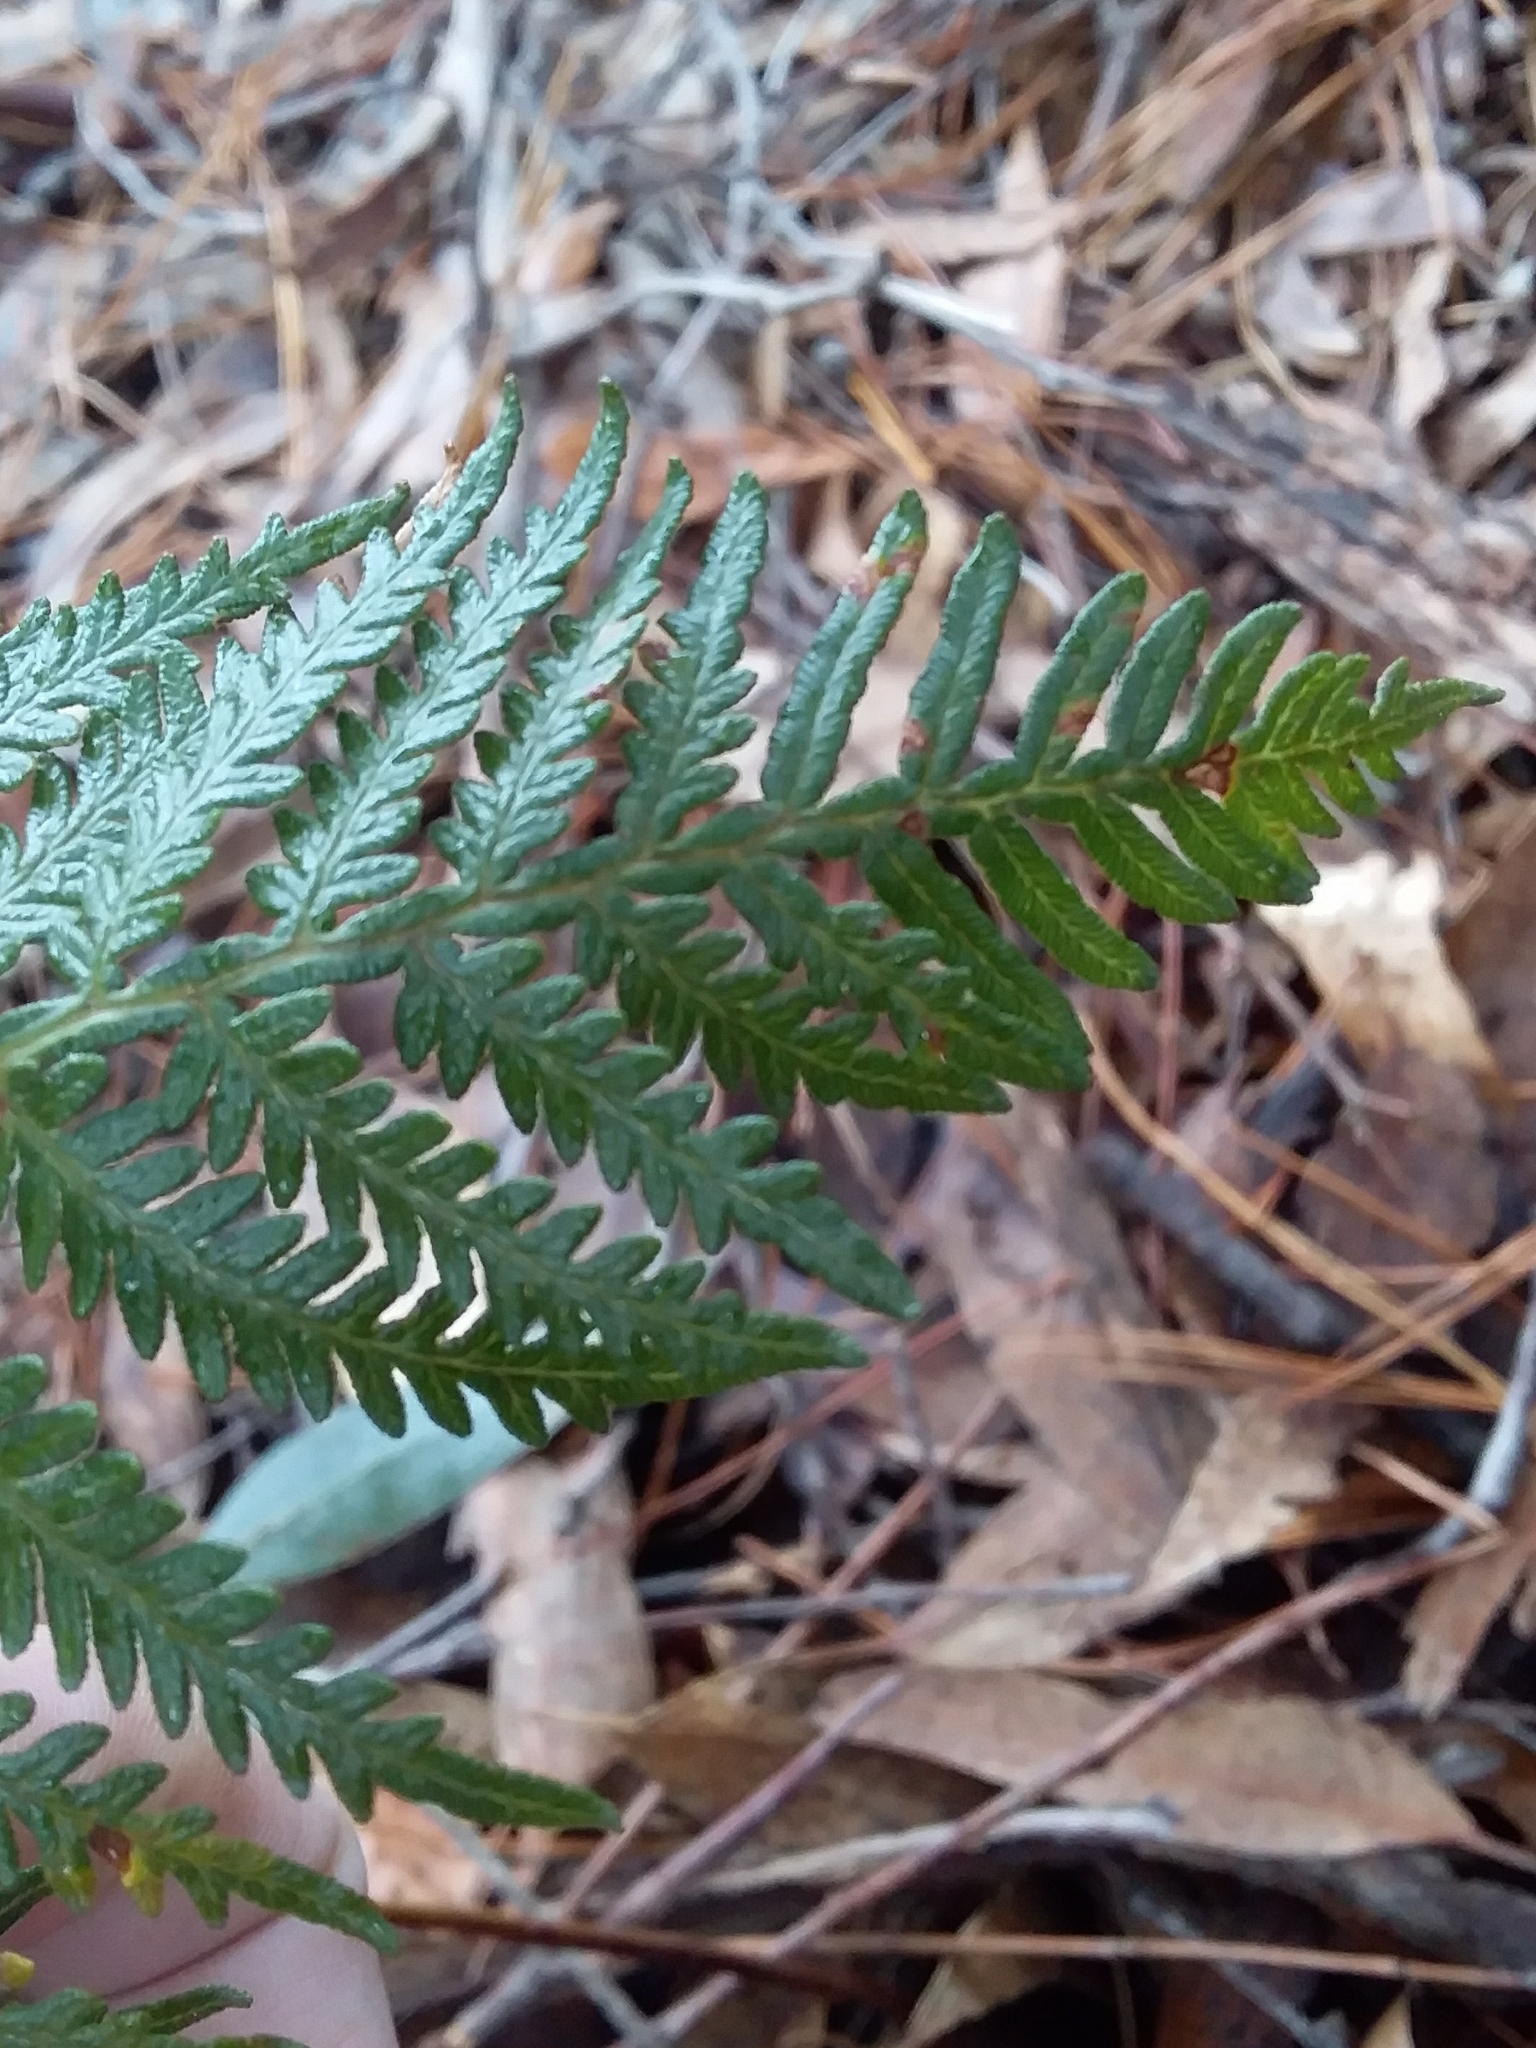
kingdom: Plantae
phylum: Tracheophyta
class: Polypodiopsida
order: Polypodiales
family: Dennstaedtiaceae
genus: Pteridium
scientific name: Pteridium esculentum
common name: Bracken fern
